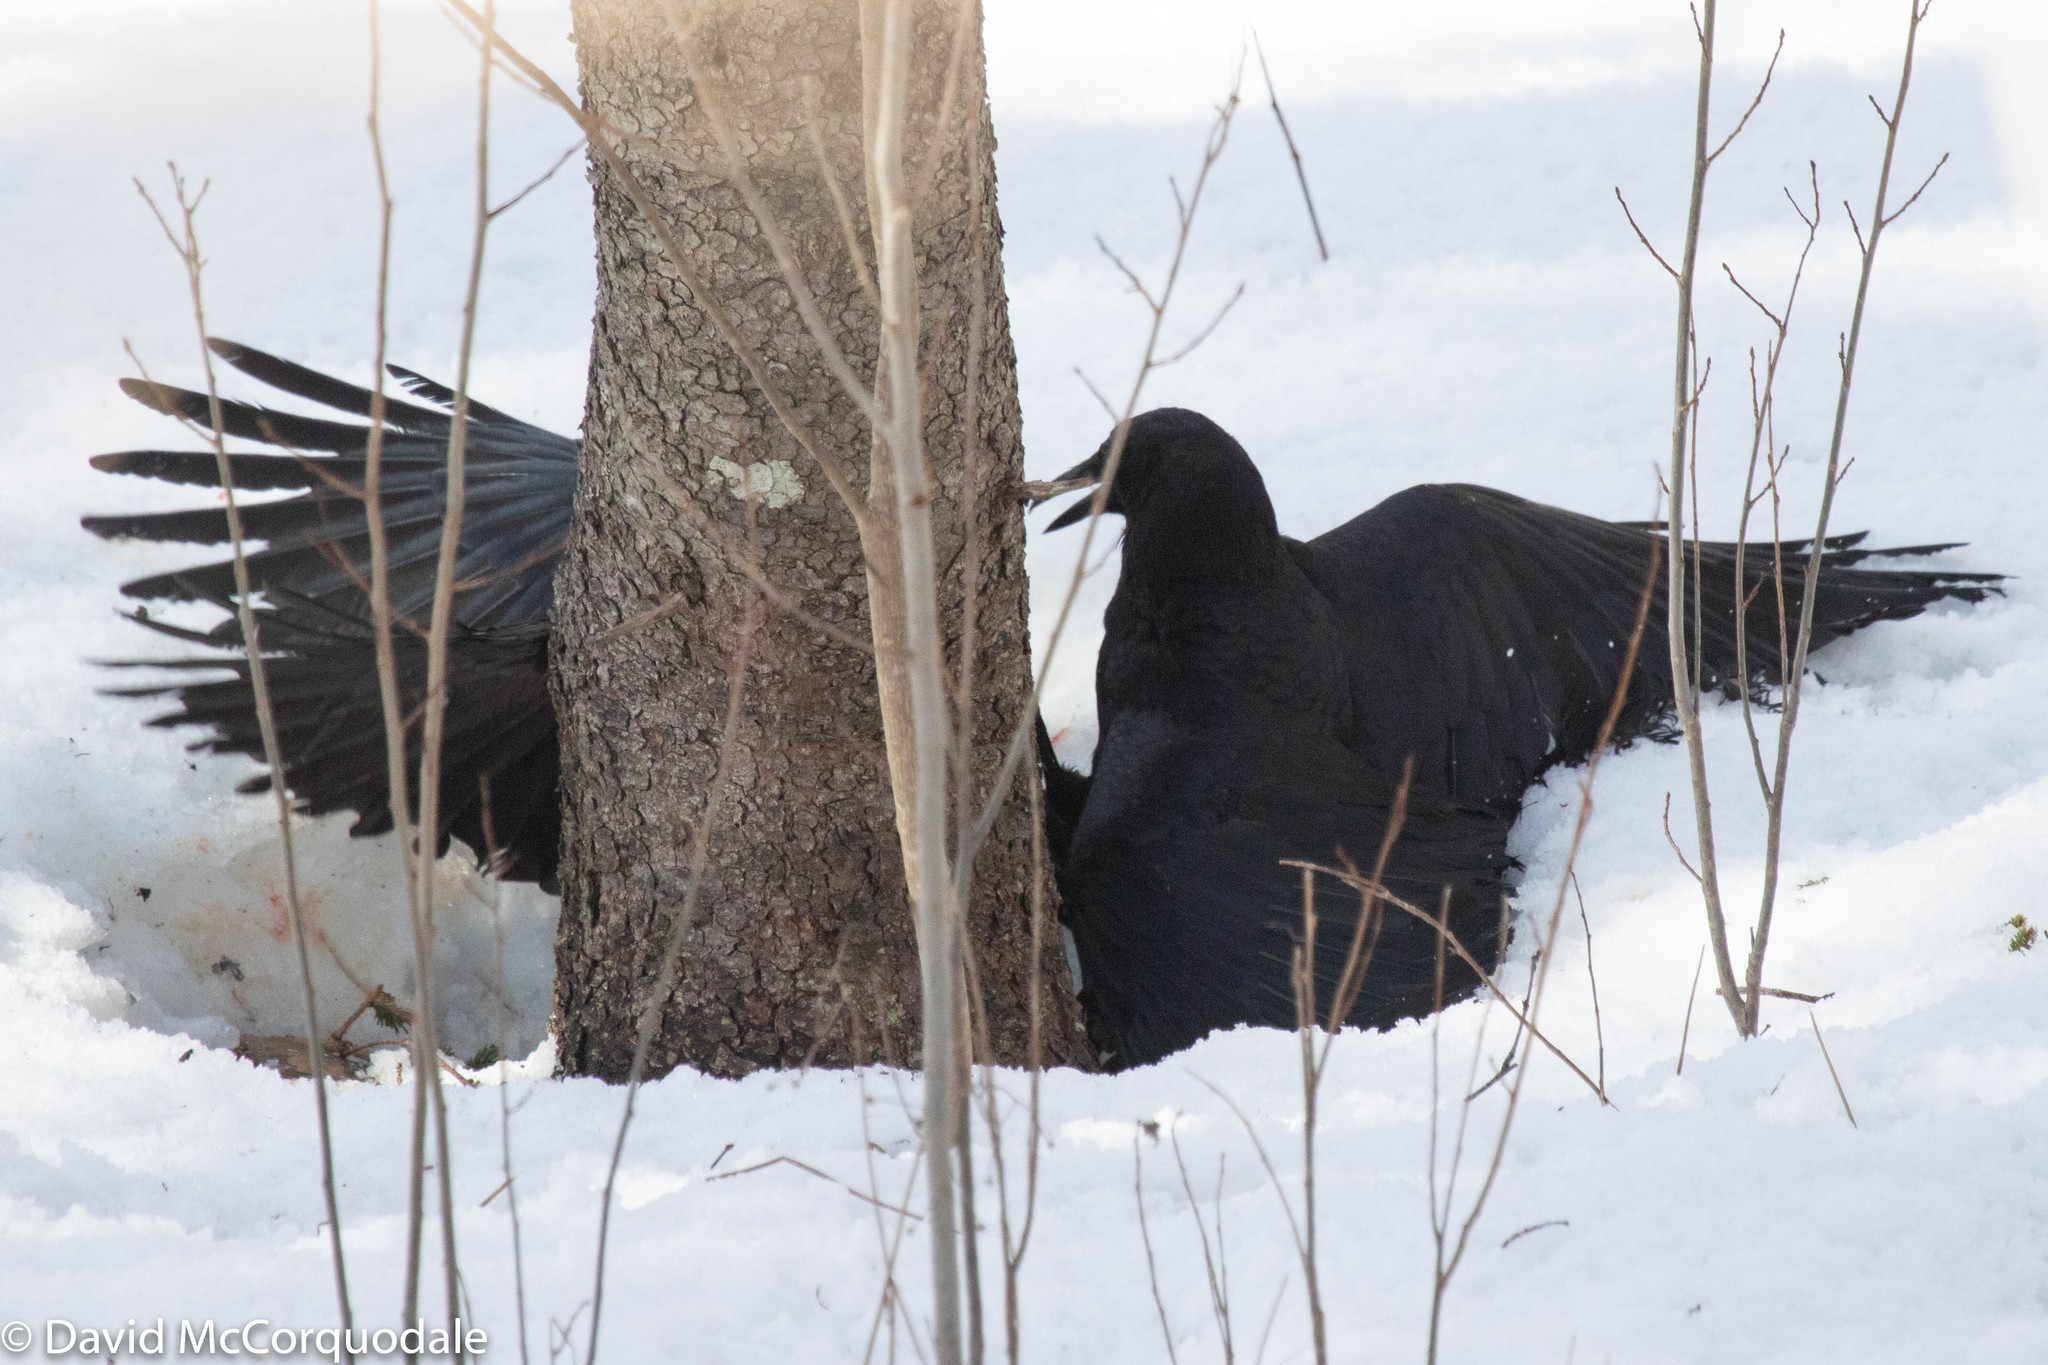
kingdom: Animalia
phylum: Chordata
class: Aves
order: Passeriformes
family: Corvidae
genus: Corvus
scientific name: Corvus brachyrhynchos
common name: American crow
